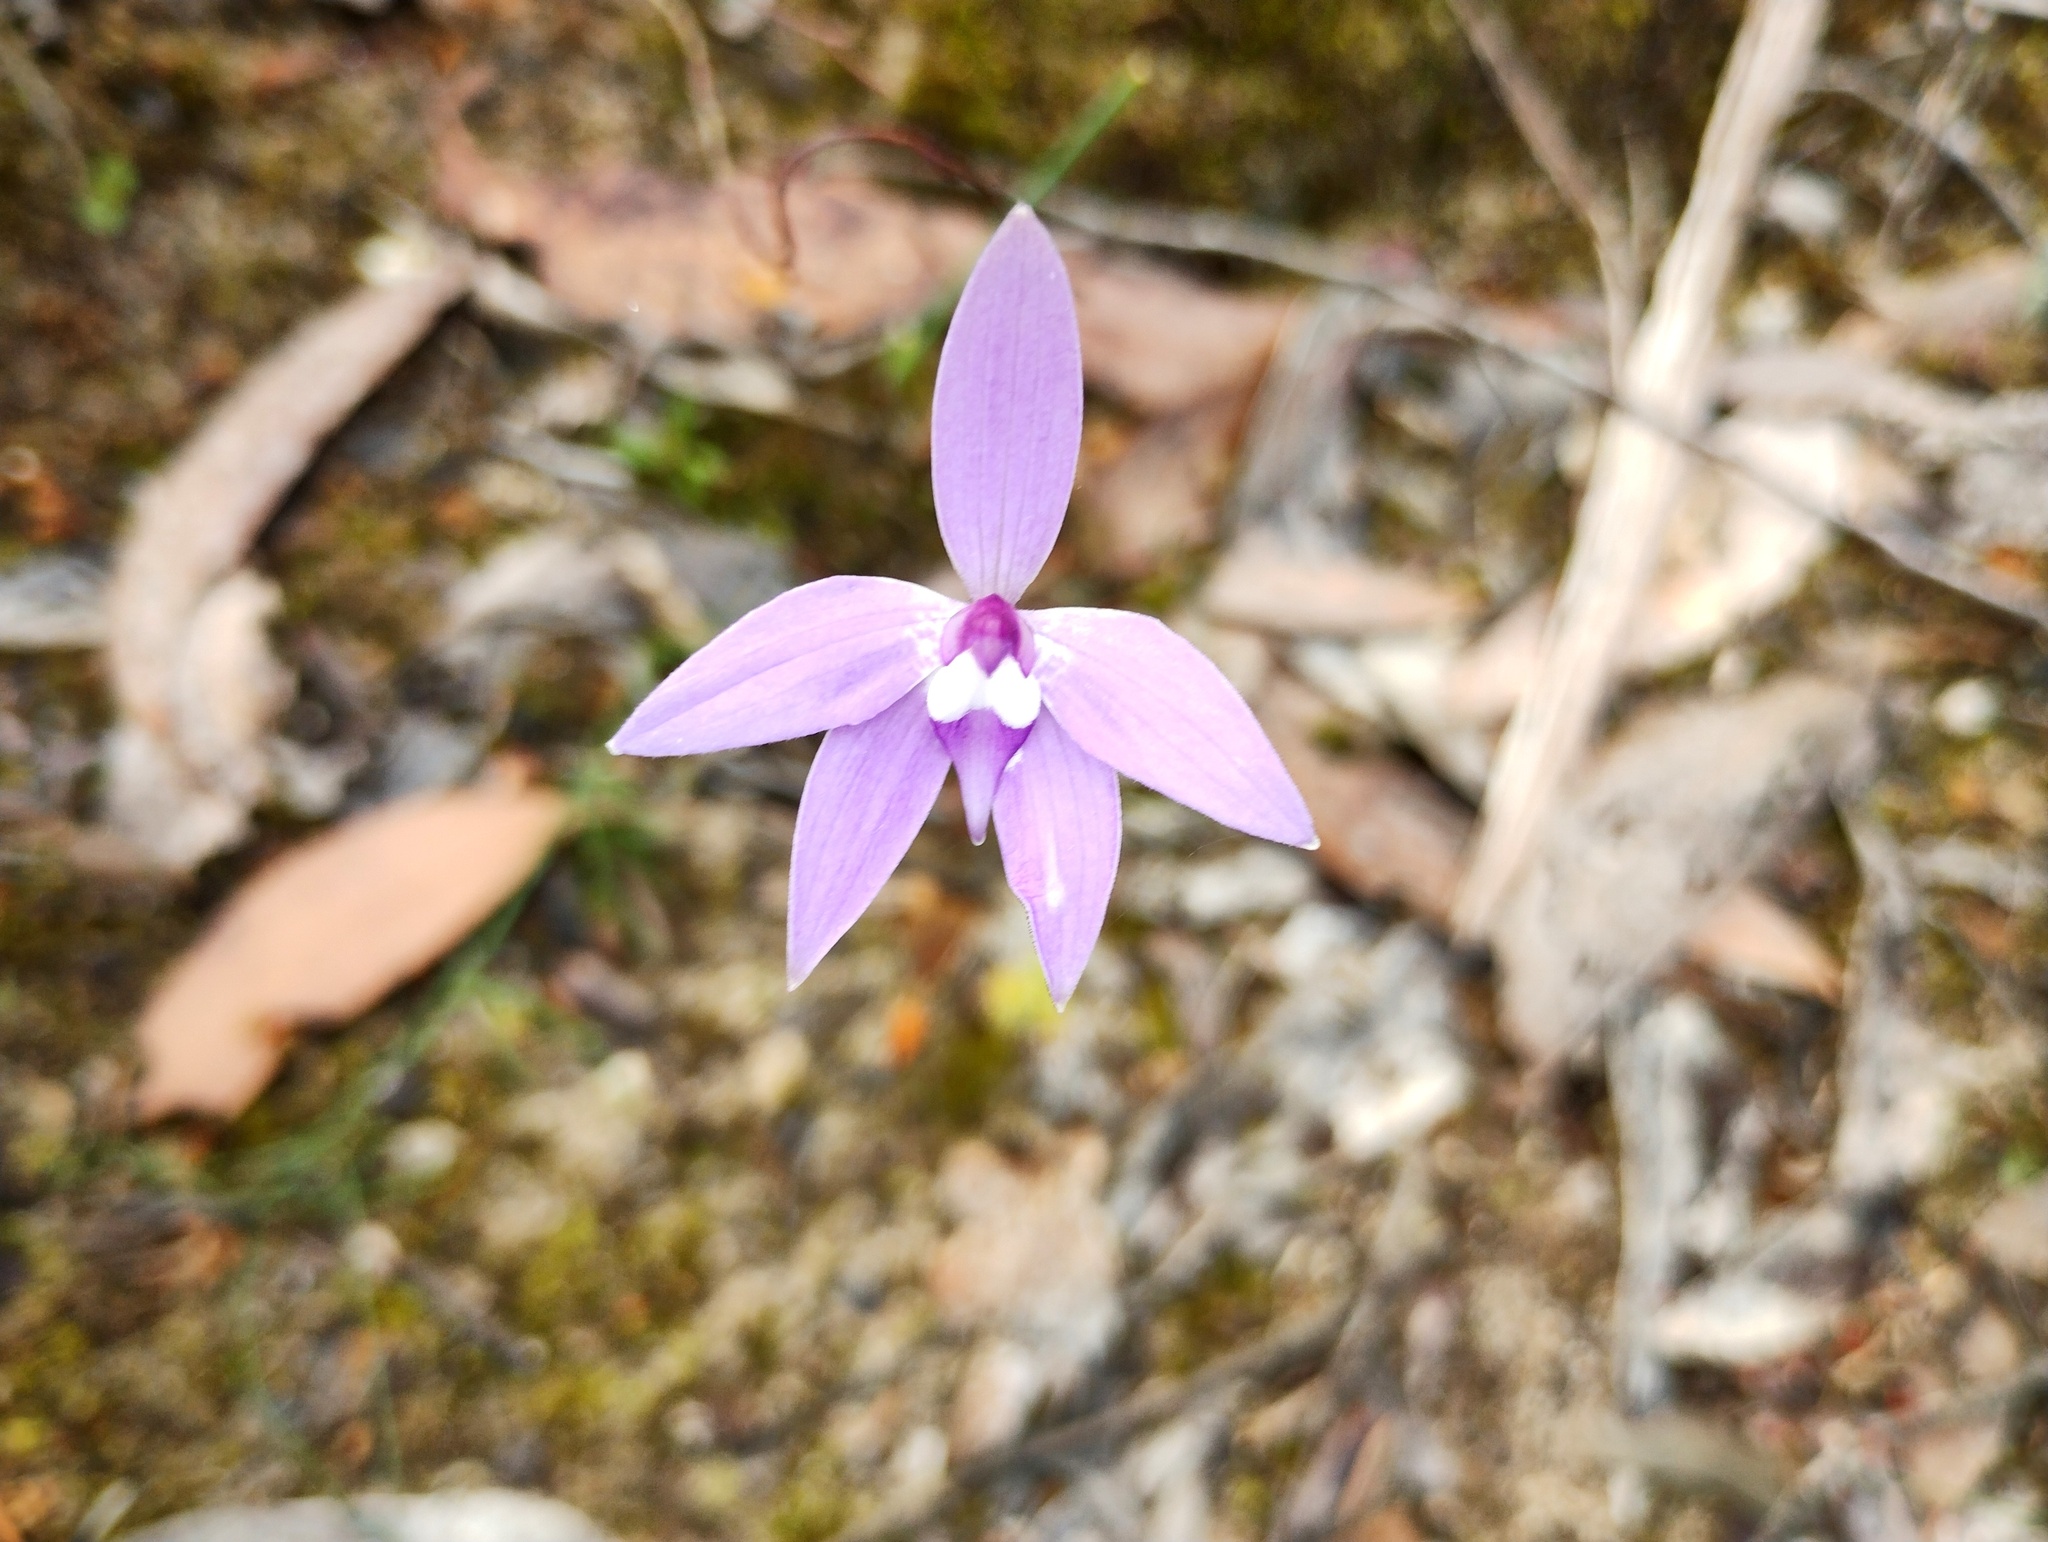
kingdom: Plantae
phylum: Tracheophyta
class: Liliopsida
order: Asparagales
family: Orchidaceae
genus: Caladenia
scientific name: Caladenia major
